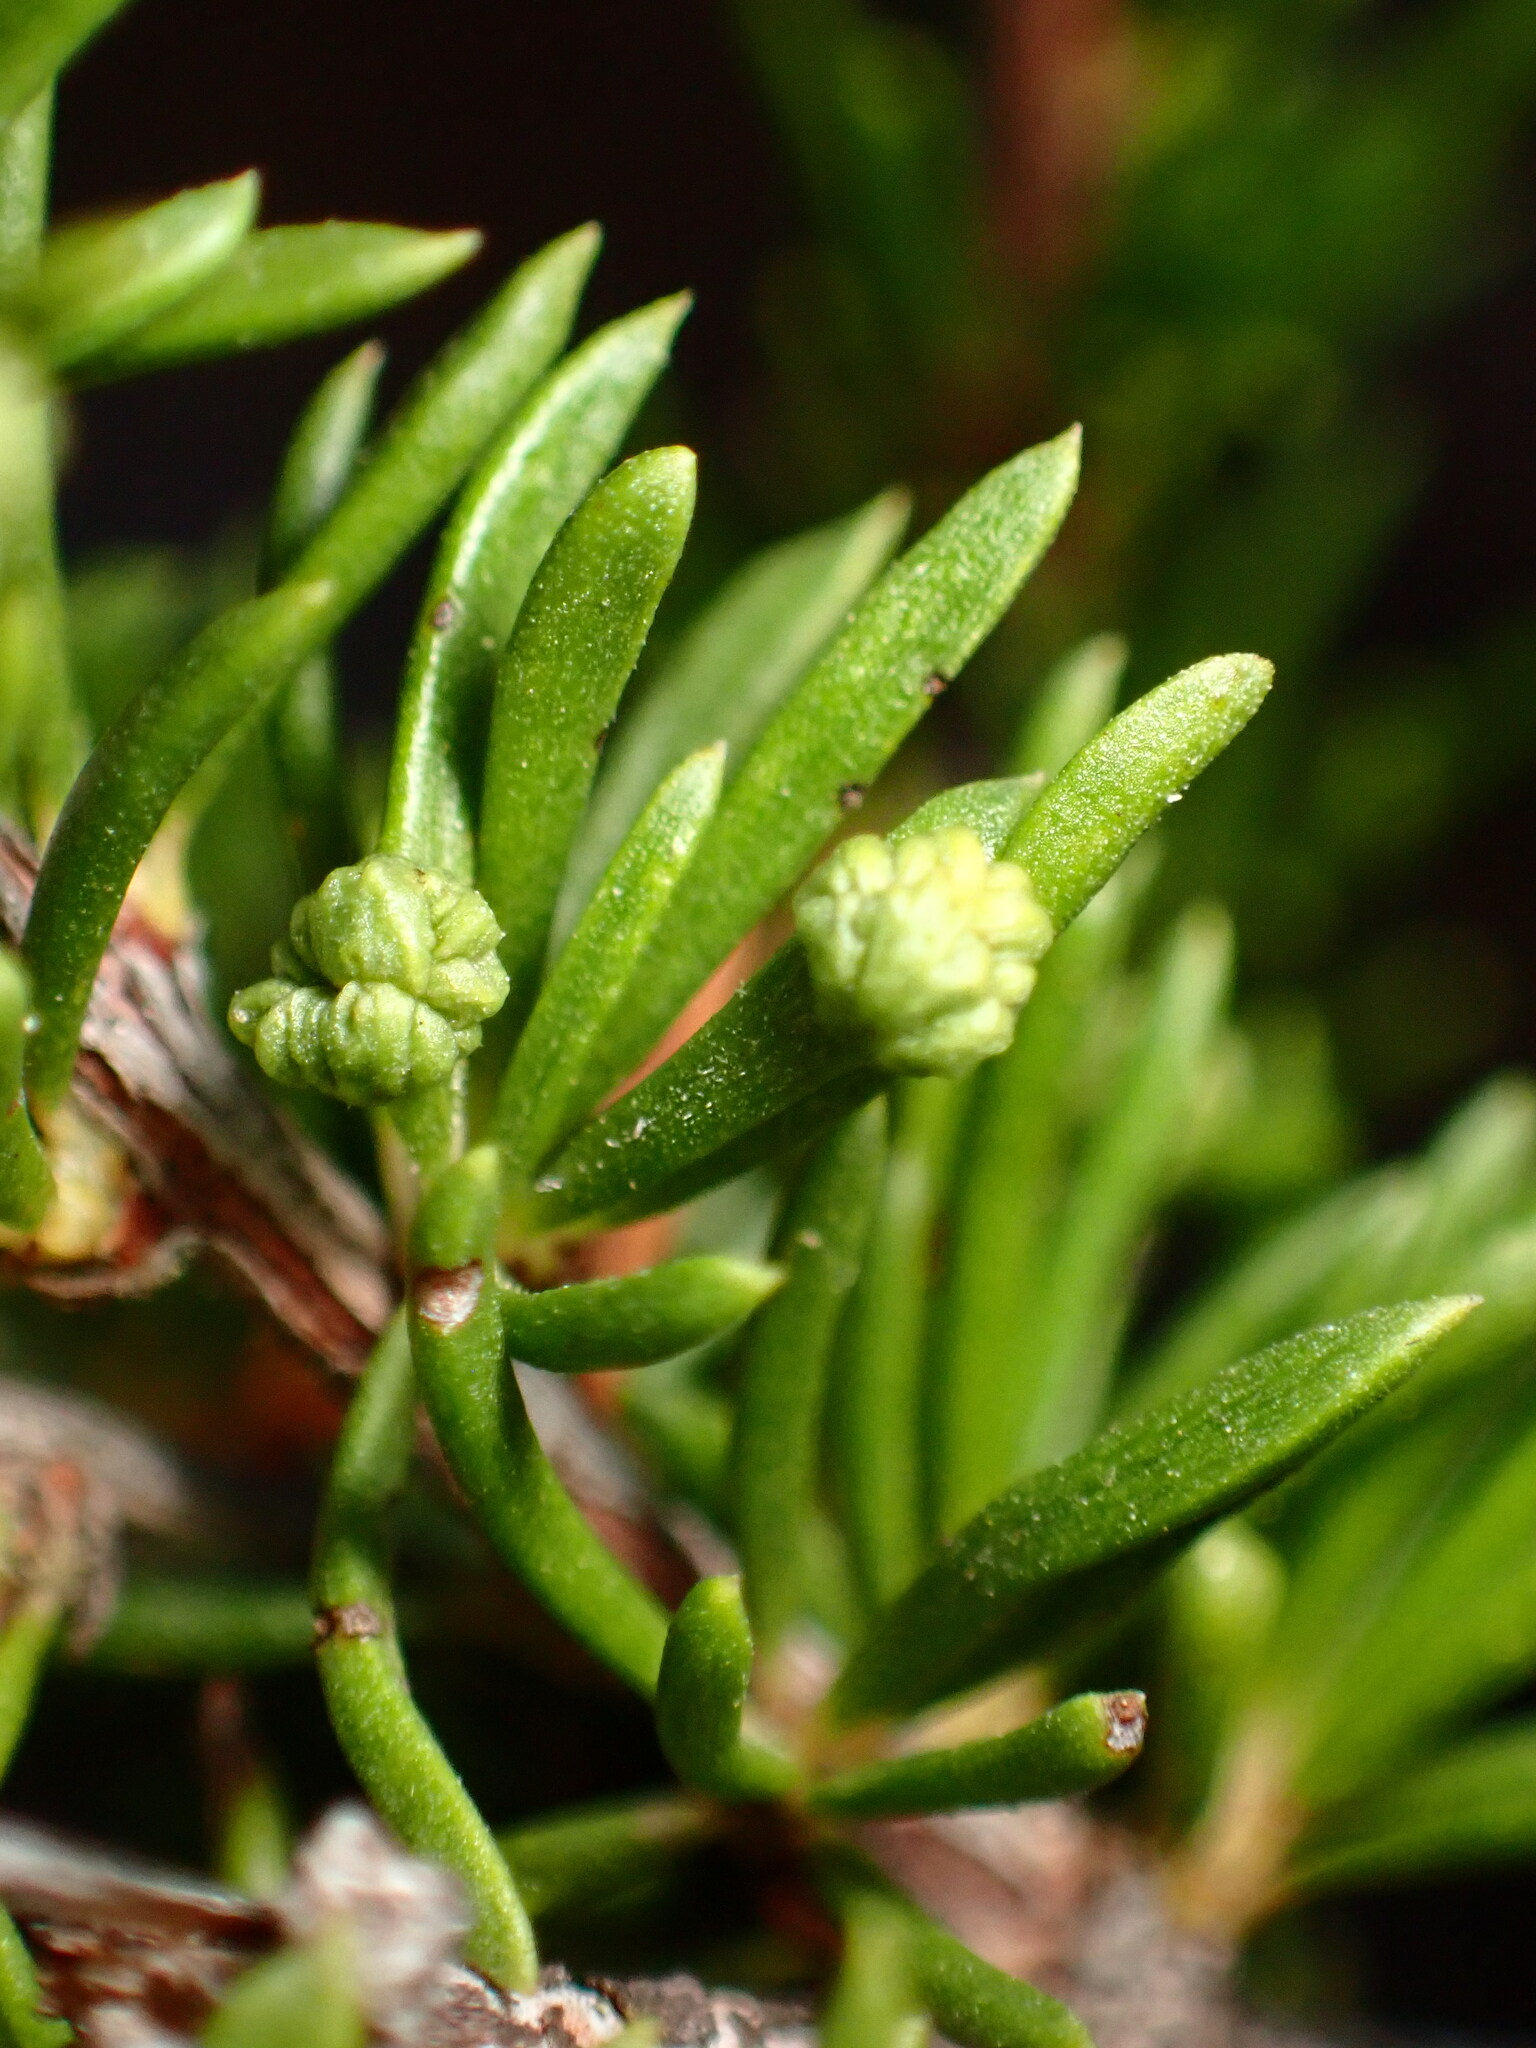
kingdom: Animalia
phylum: Arthropoda
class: Arachnida
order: Trombidiformes
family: Eriophyidae
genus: Eriophyes
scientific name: Eriophyes
